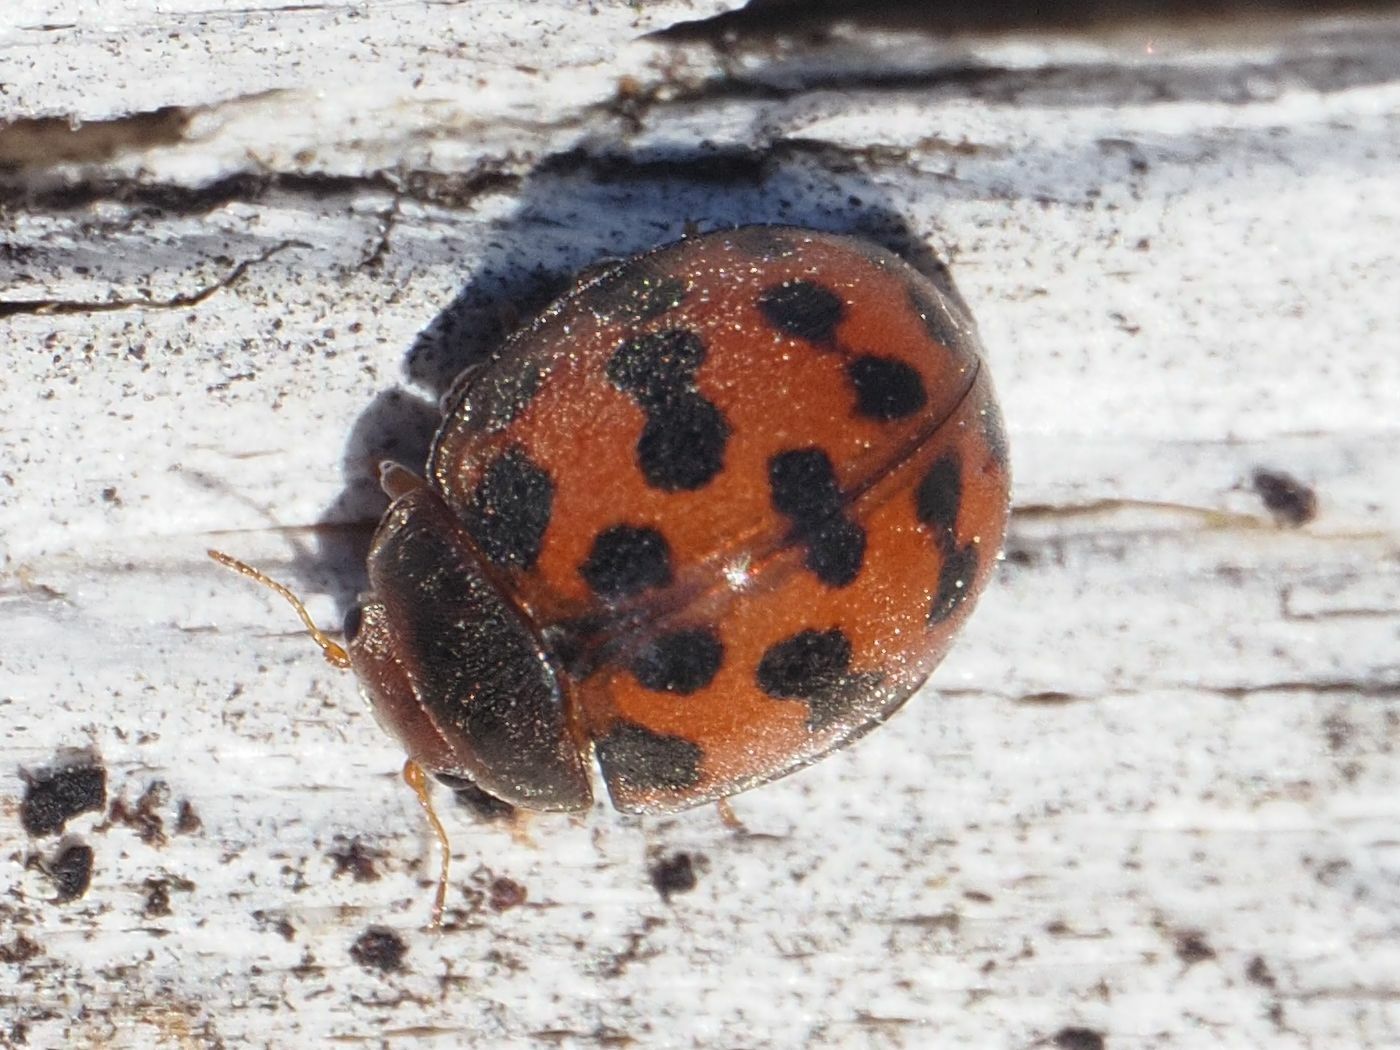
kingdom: Animalia
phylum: Arthropoda
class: Insecta
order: Coleoptera
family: Coccinellidae
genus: Subcoccinella
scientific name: Subcoccinella vigintiquatuorpunctata
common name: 24-spot ladybird
